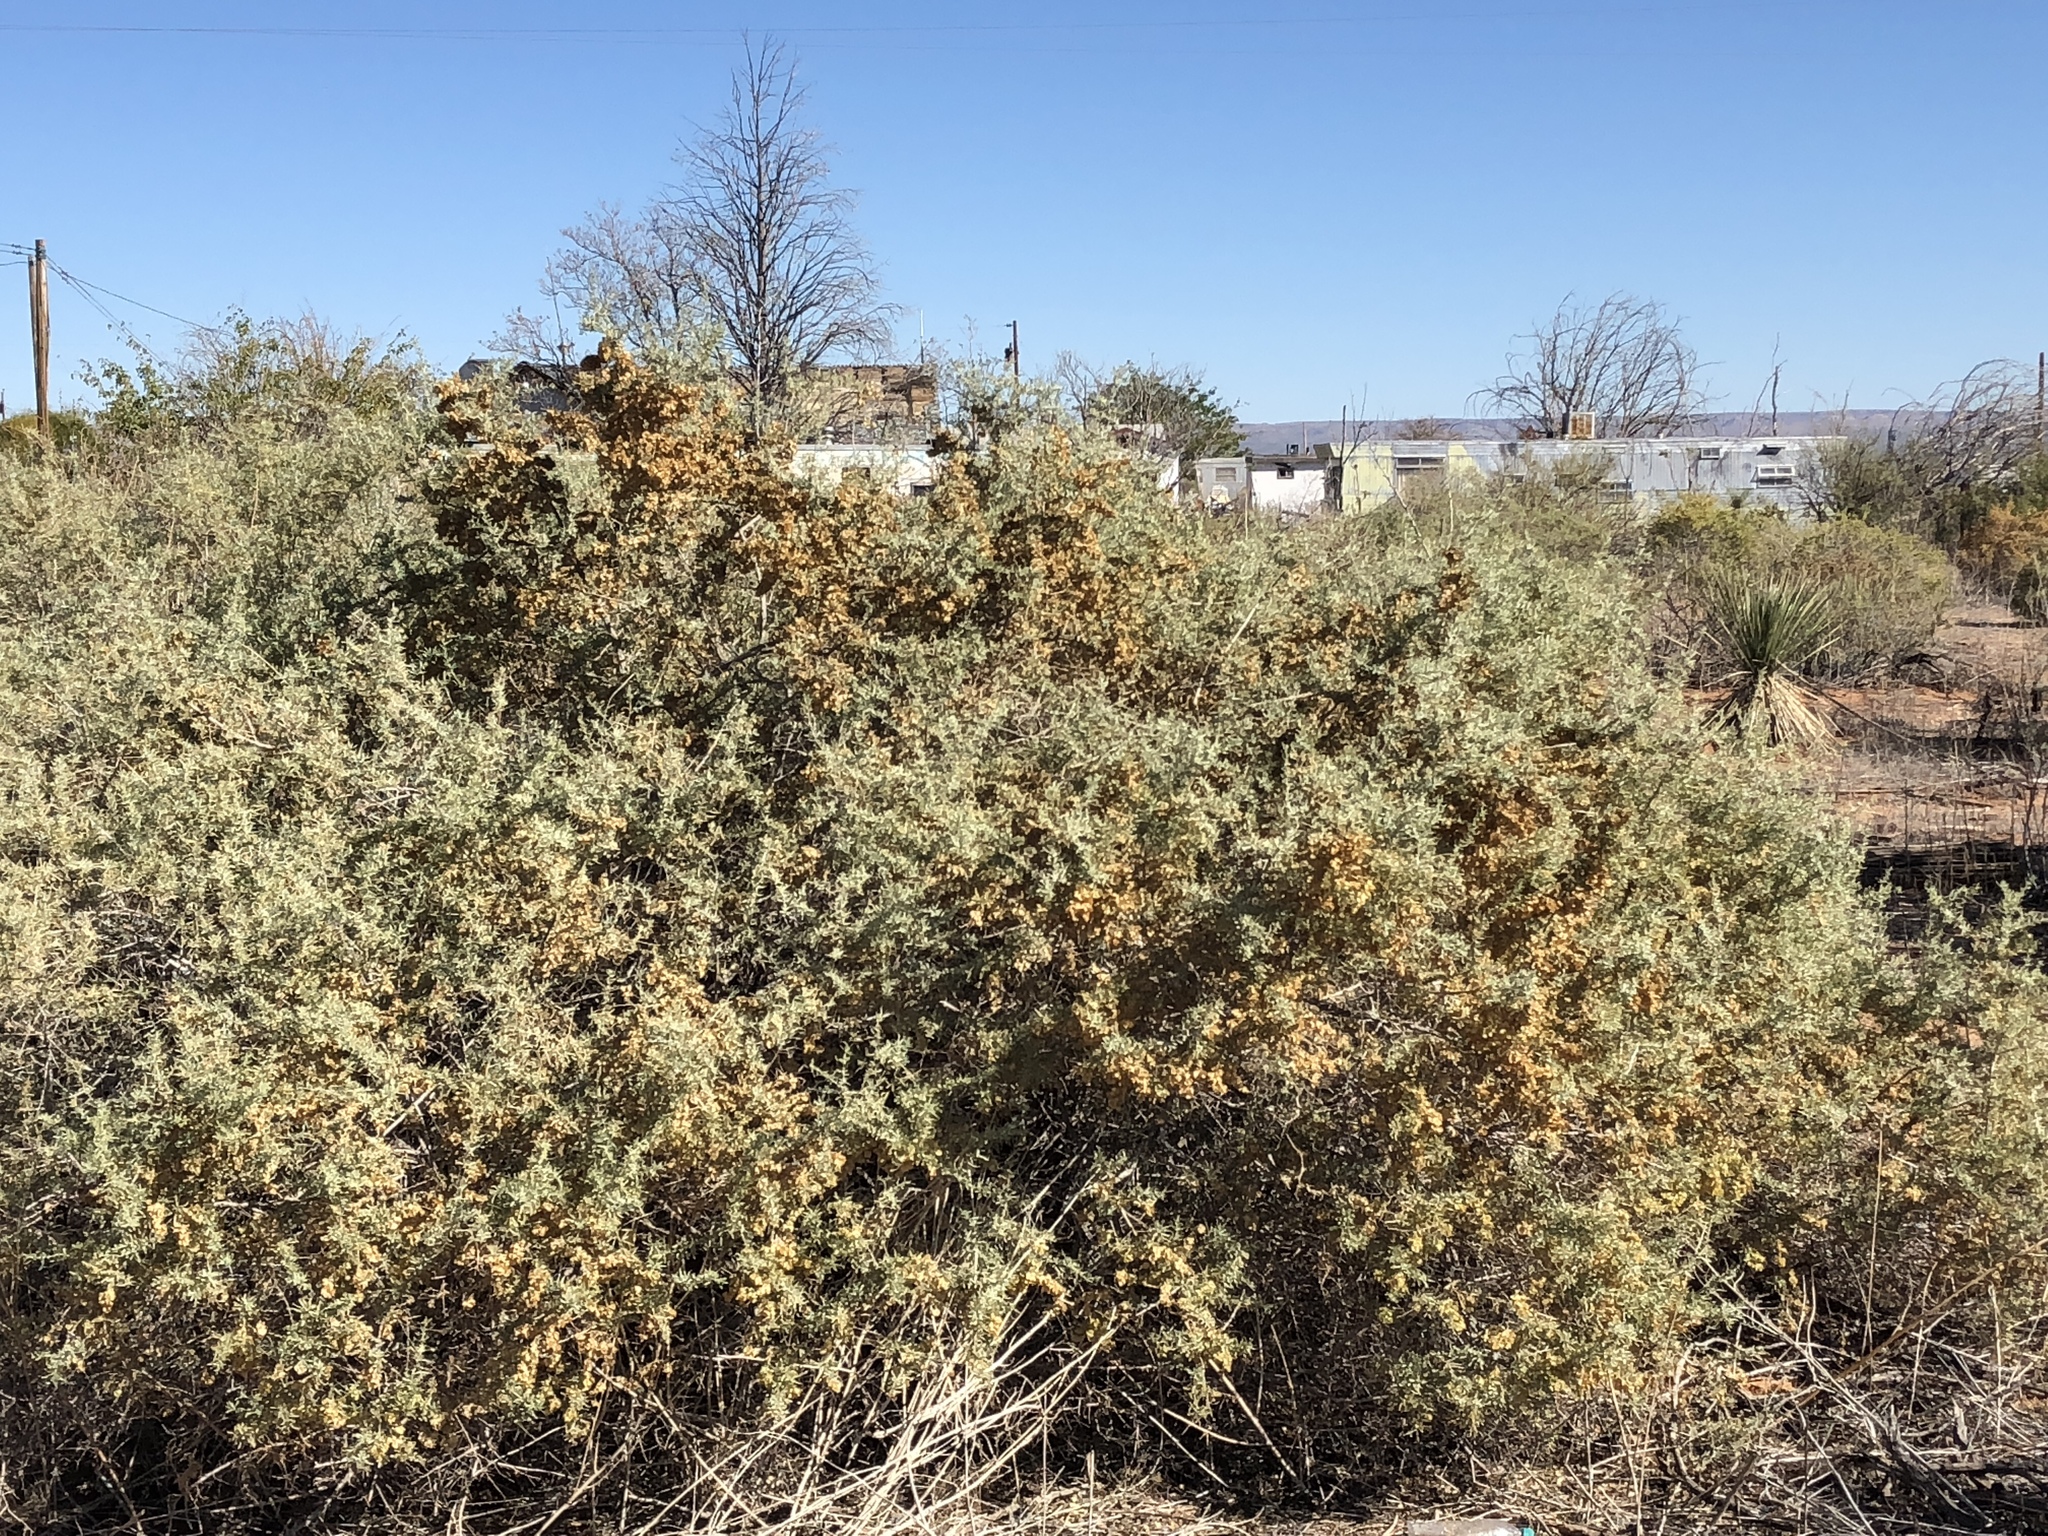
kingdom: Plantae
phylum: Tracheophyta
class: Magnoliopsida
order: Caryophyllales
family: Amaranthaceae
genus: Atriplex
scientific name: Atriplex canescens
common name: Four-wing saltbush
